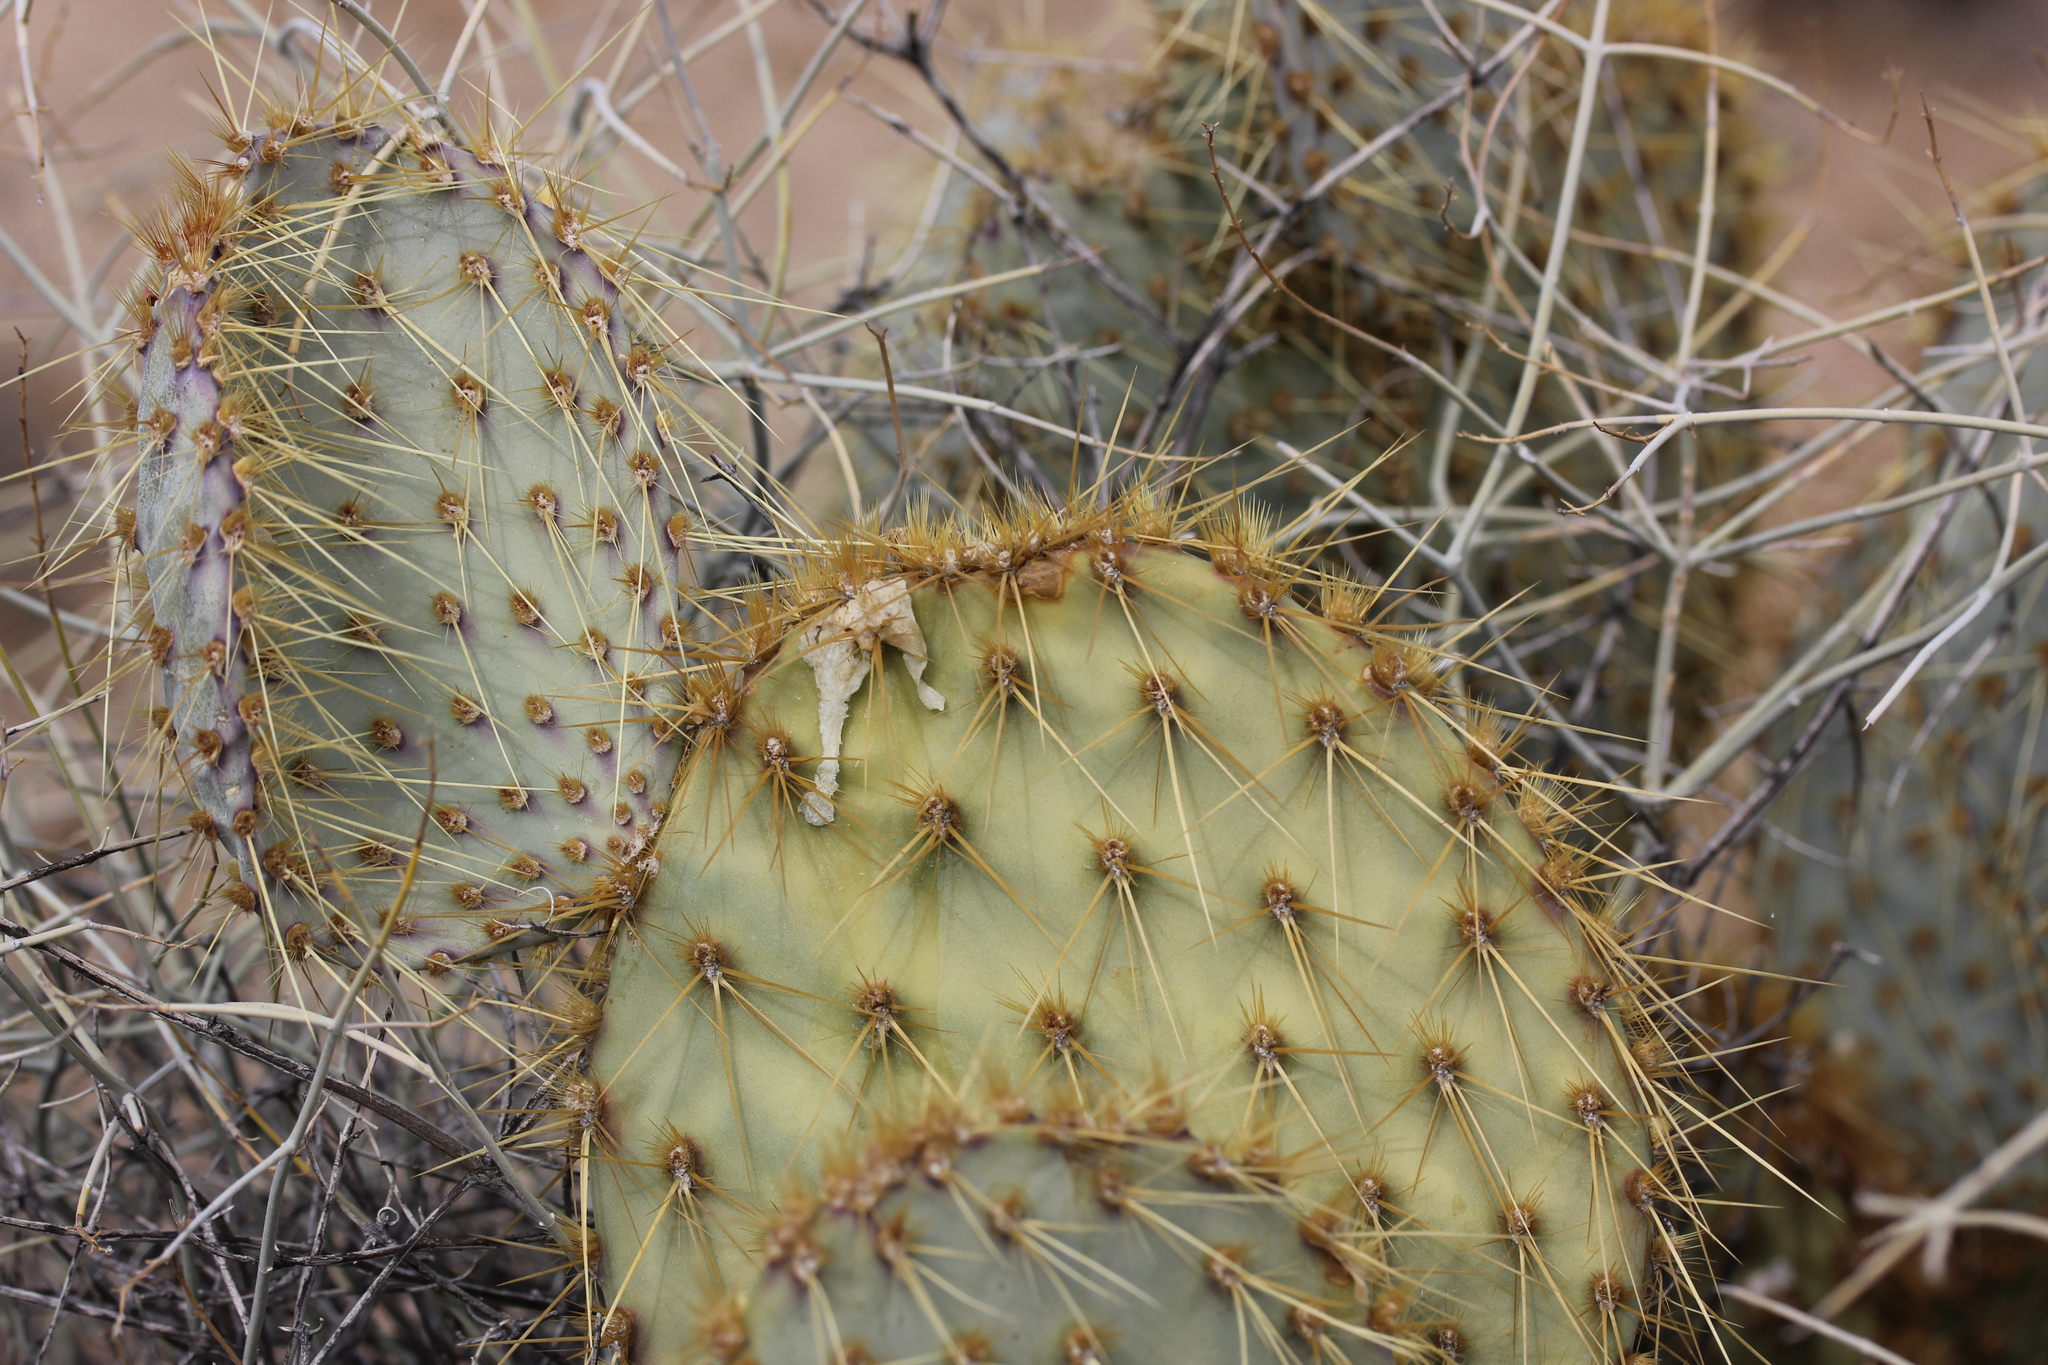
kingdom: Plantae
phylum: Tracheophyta
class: Magnoliopsida
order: Caryophyllales
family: Cactaceae
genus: Opuntia
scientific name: Opuntia chlorotica
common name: Dollar-joint prickly-pear
